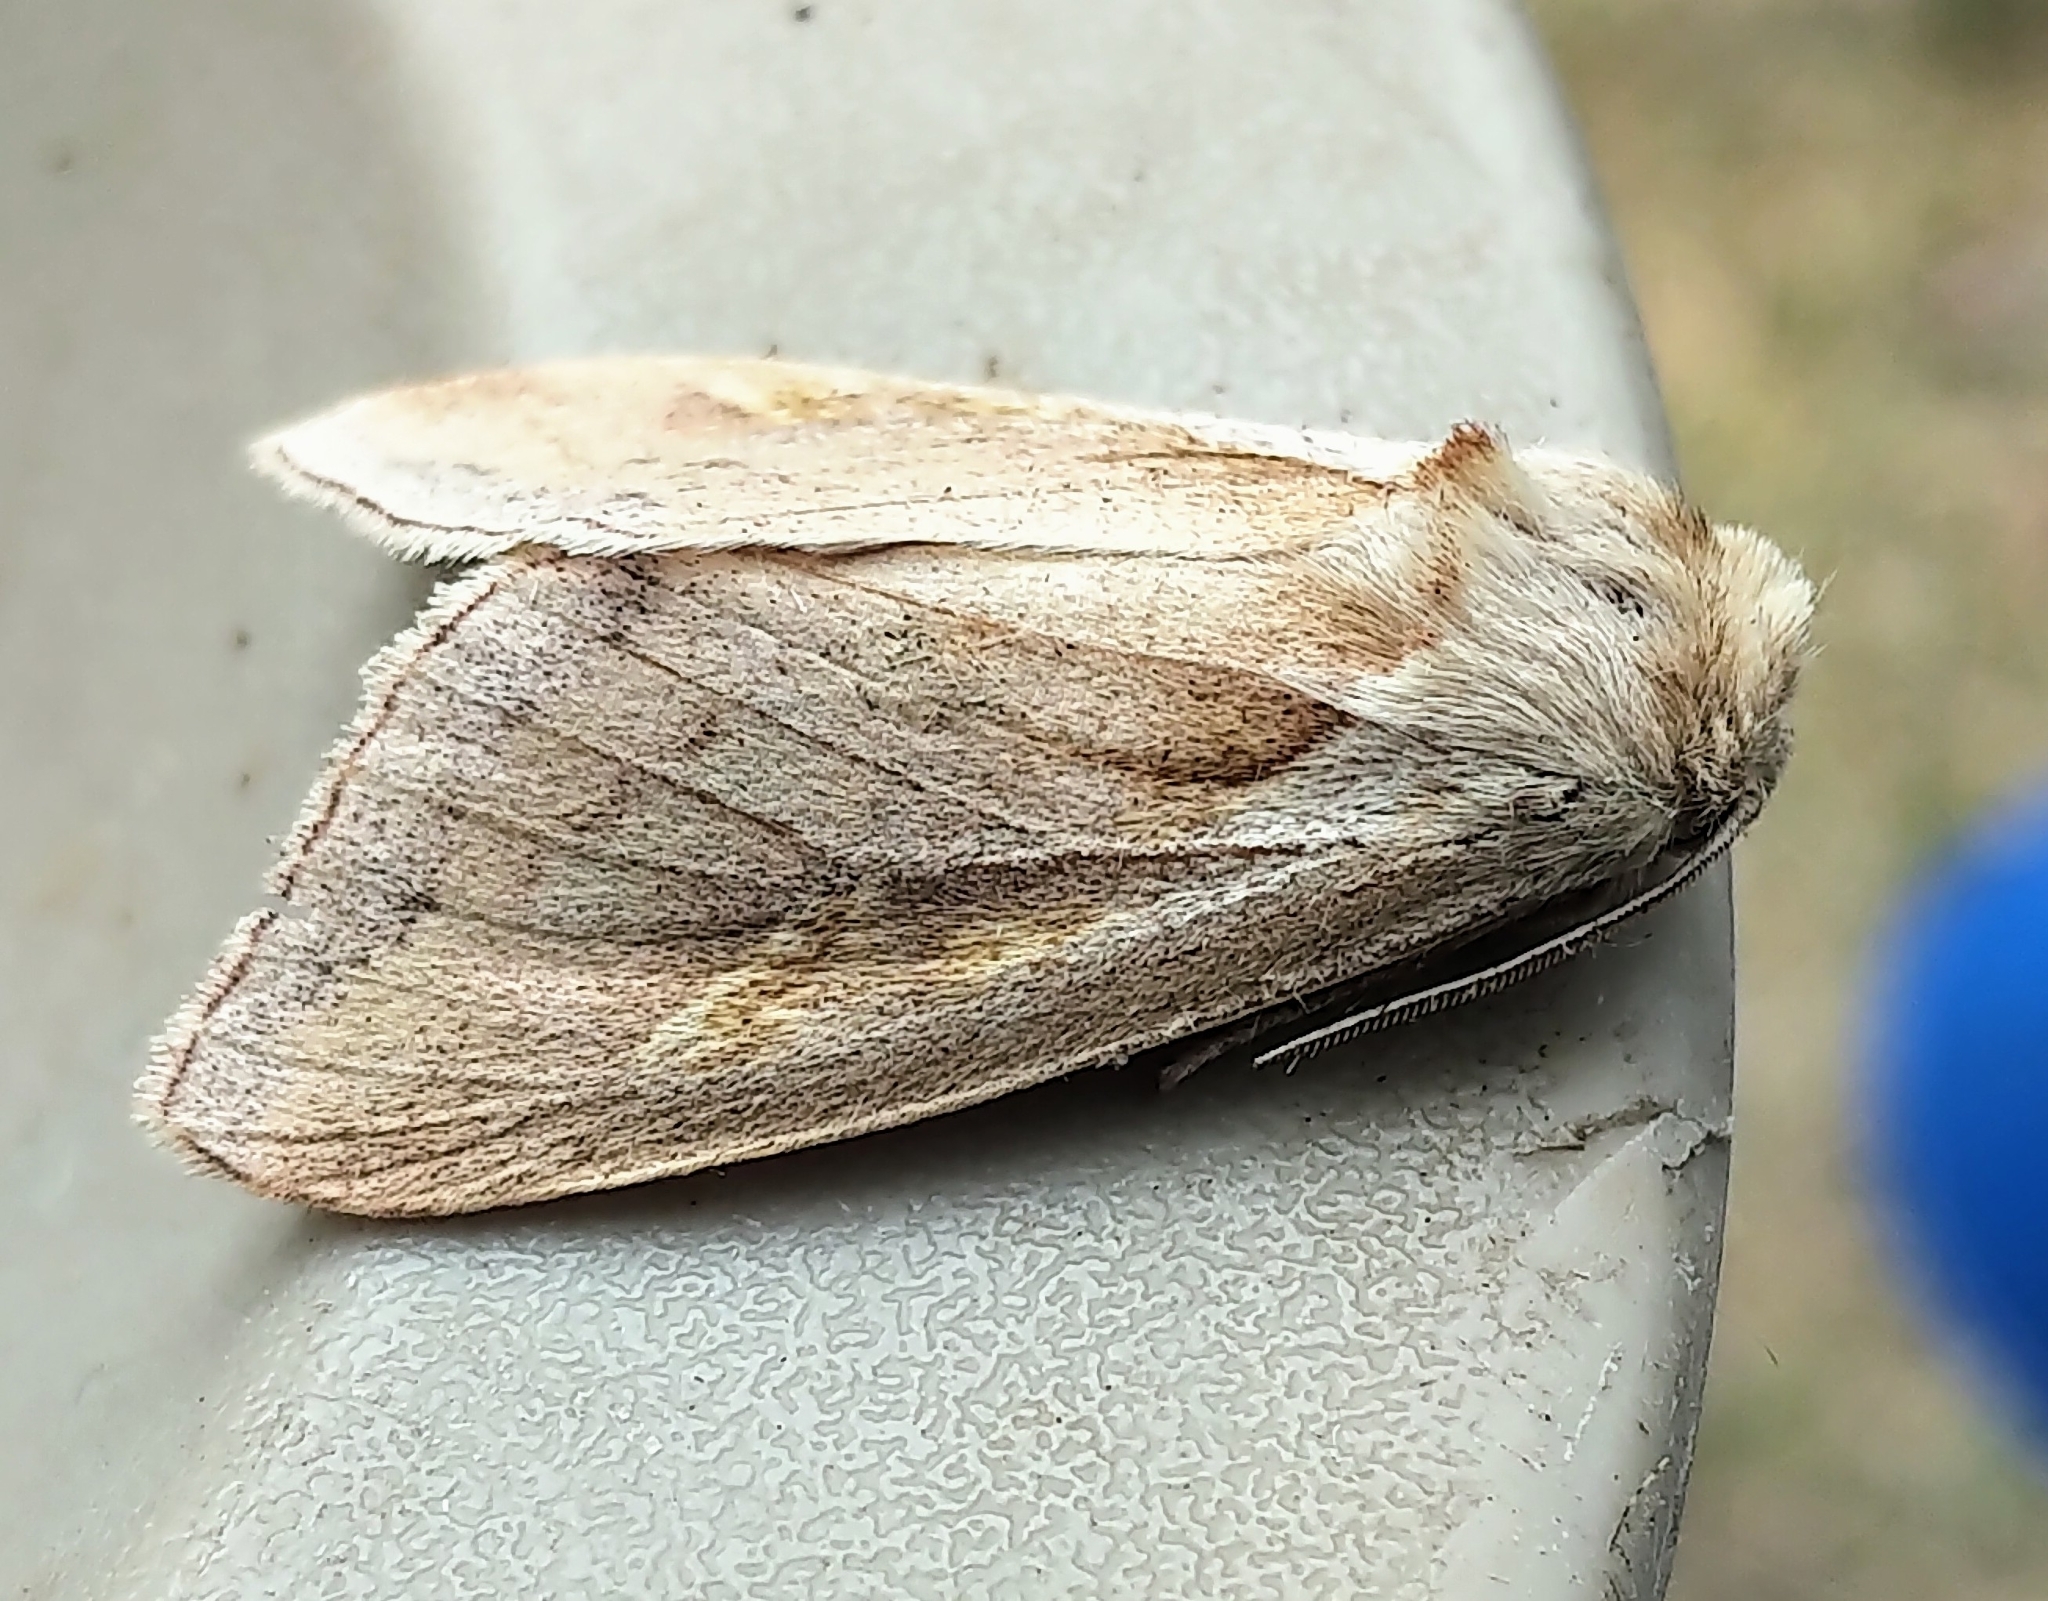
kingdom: Animalia
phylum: Arthropoda
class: Insecta
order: Lepidoptera
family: Noctuidae
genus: Bellura
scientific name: Bellura obliqua
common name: Cattail borer moth
